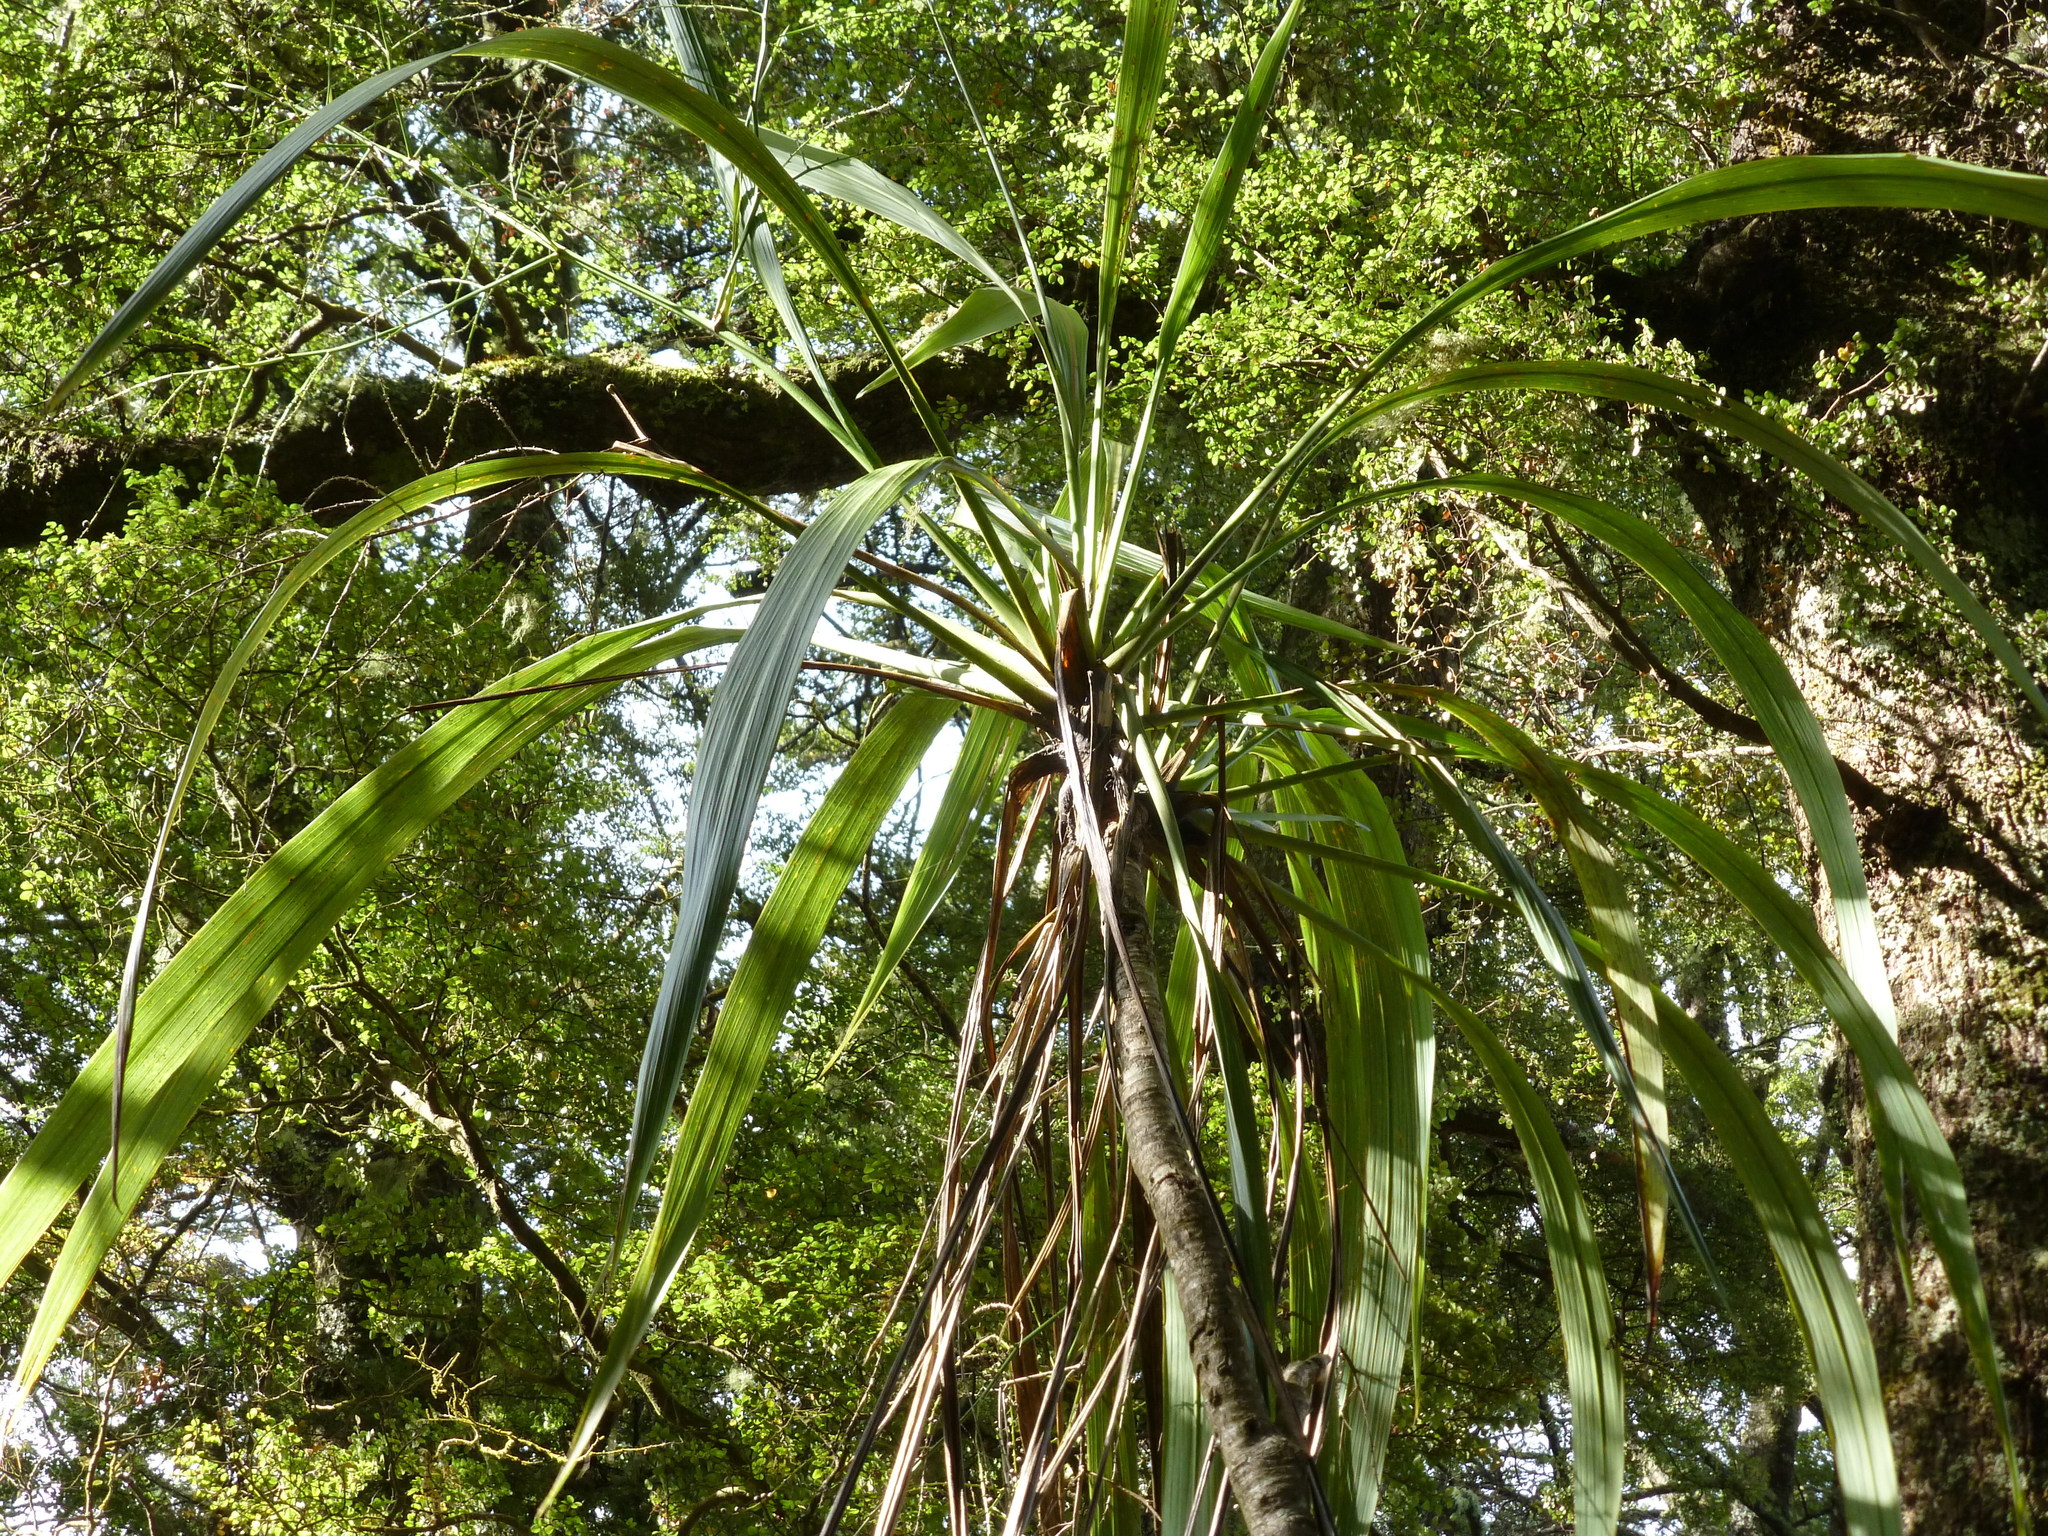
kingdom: Plantae
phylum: Tracheophyta
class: Liliopsida
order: Asparagales
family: Asparagaceae
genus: Cordyline
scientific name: Cordyline banksii
